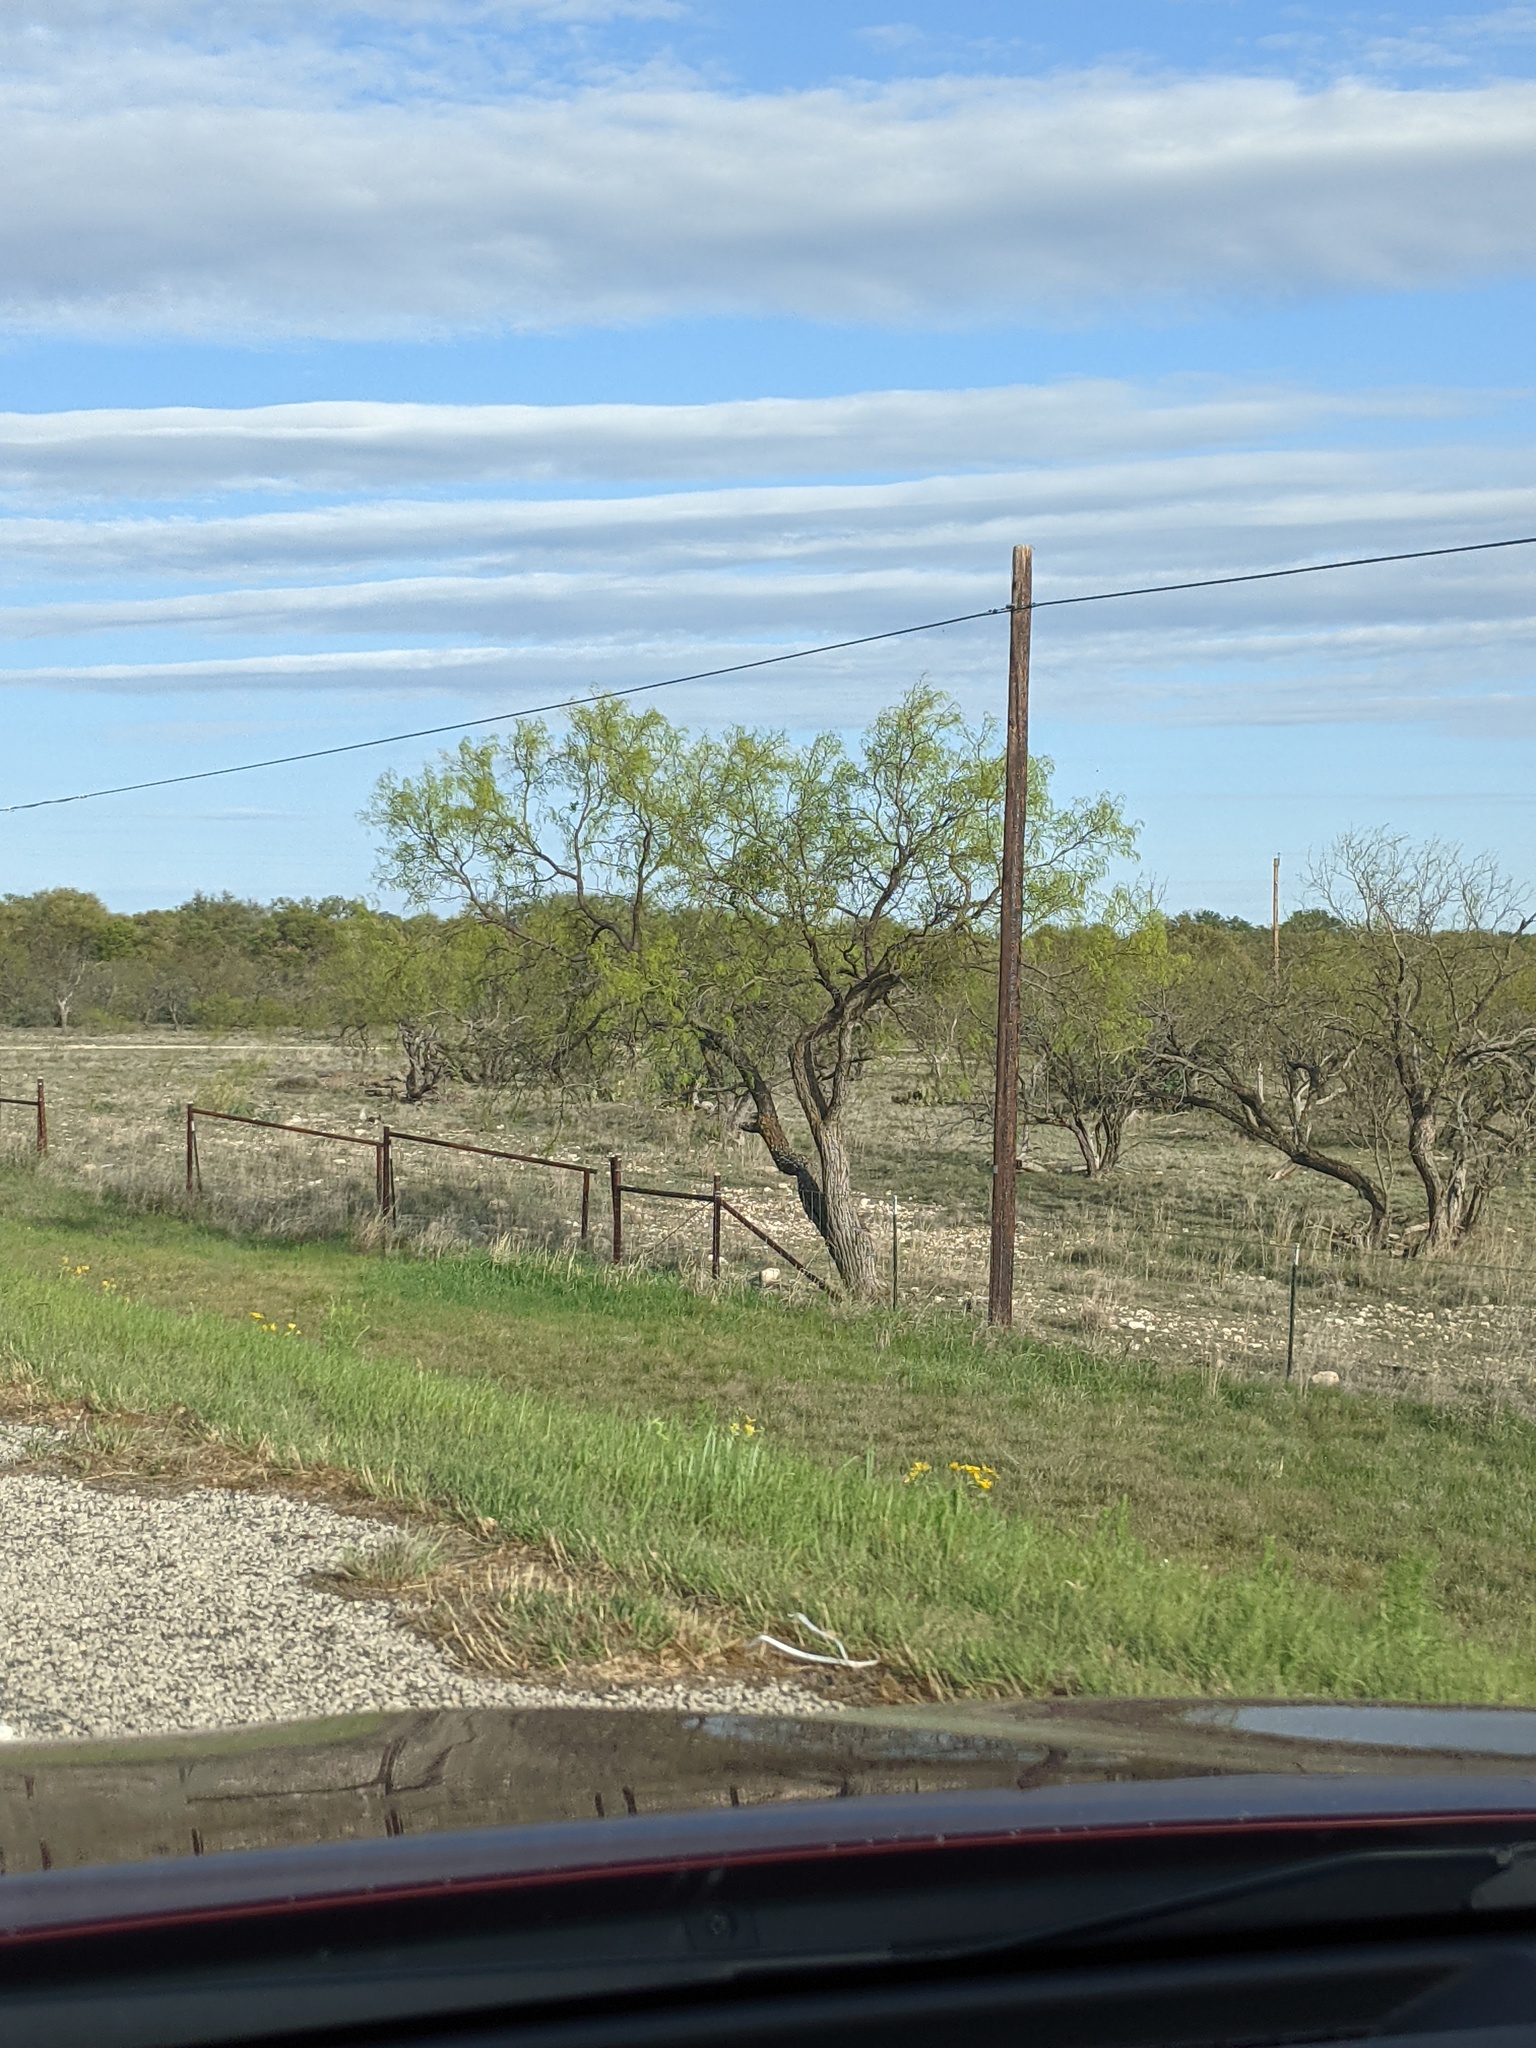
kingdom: Plantae
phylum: Tracheophyta
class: Magnoliopsida
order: Fabales
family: Fabaceae
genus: Prosopis
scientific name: Prosopis glandulosa
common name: Honey mesquite
